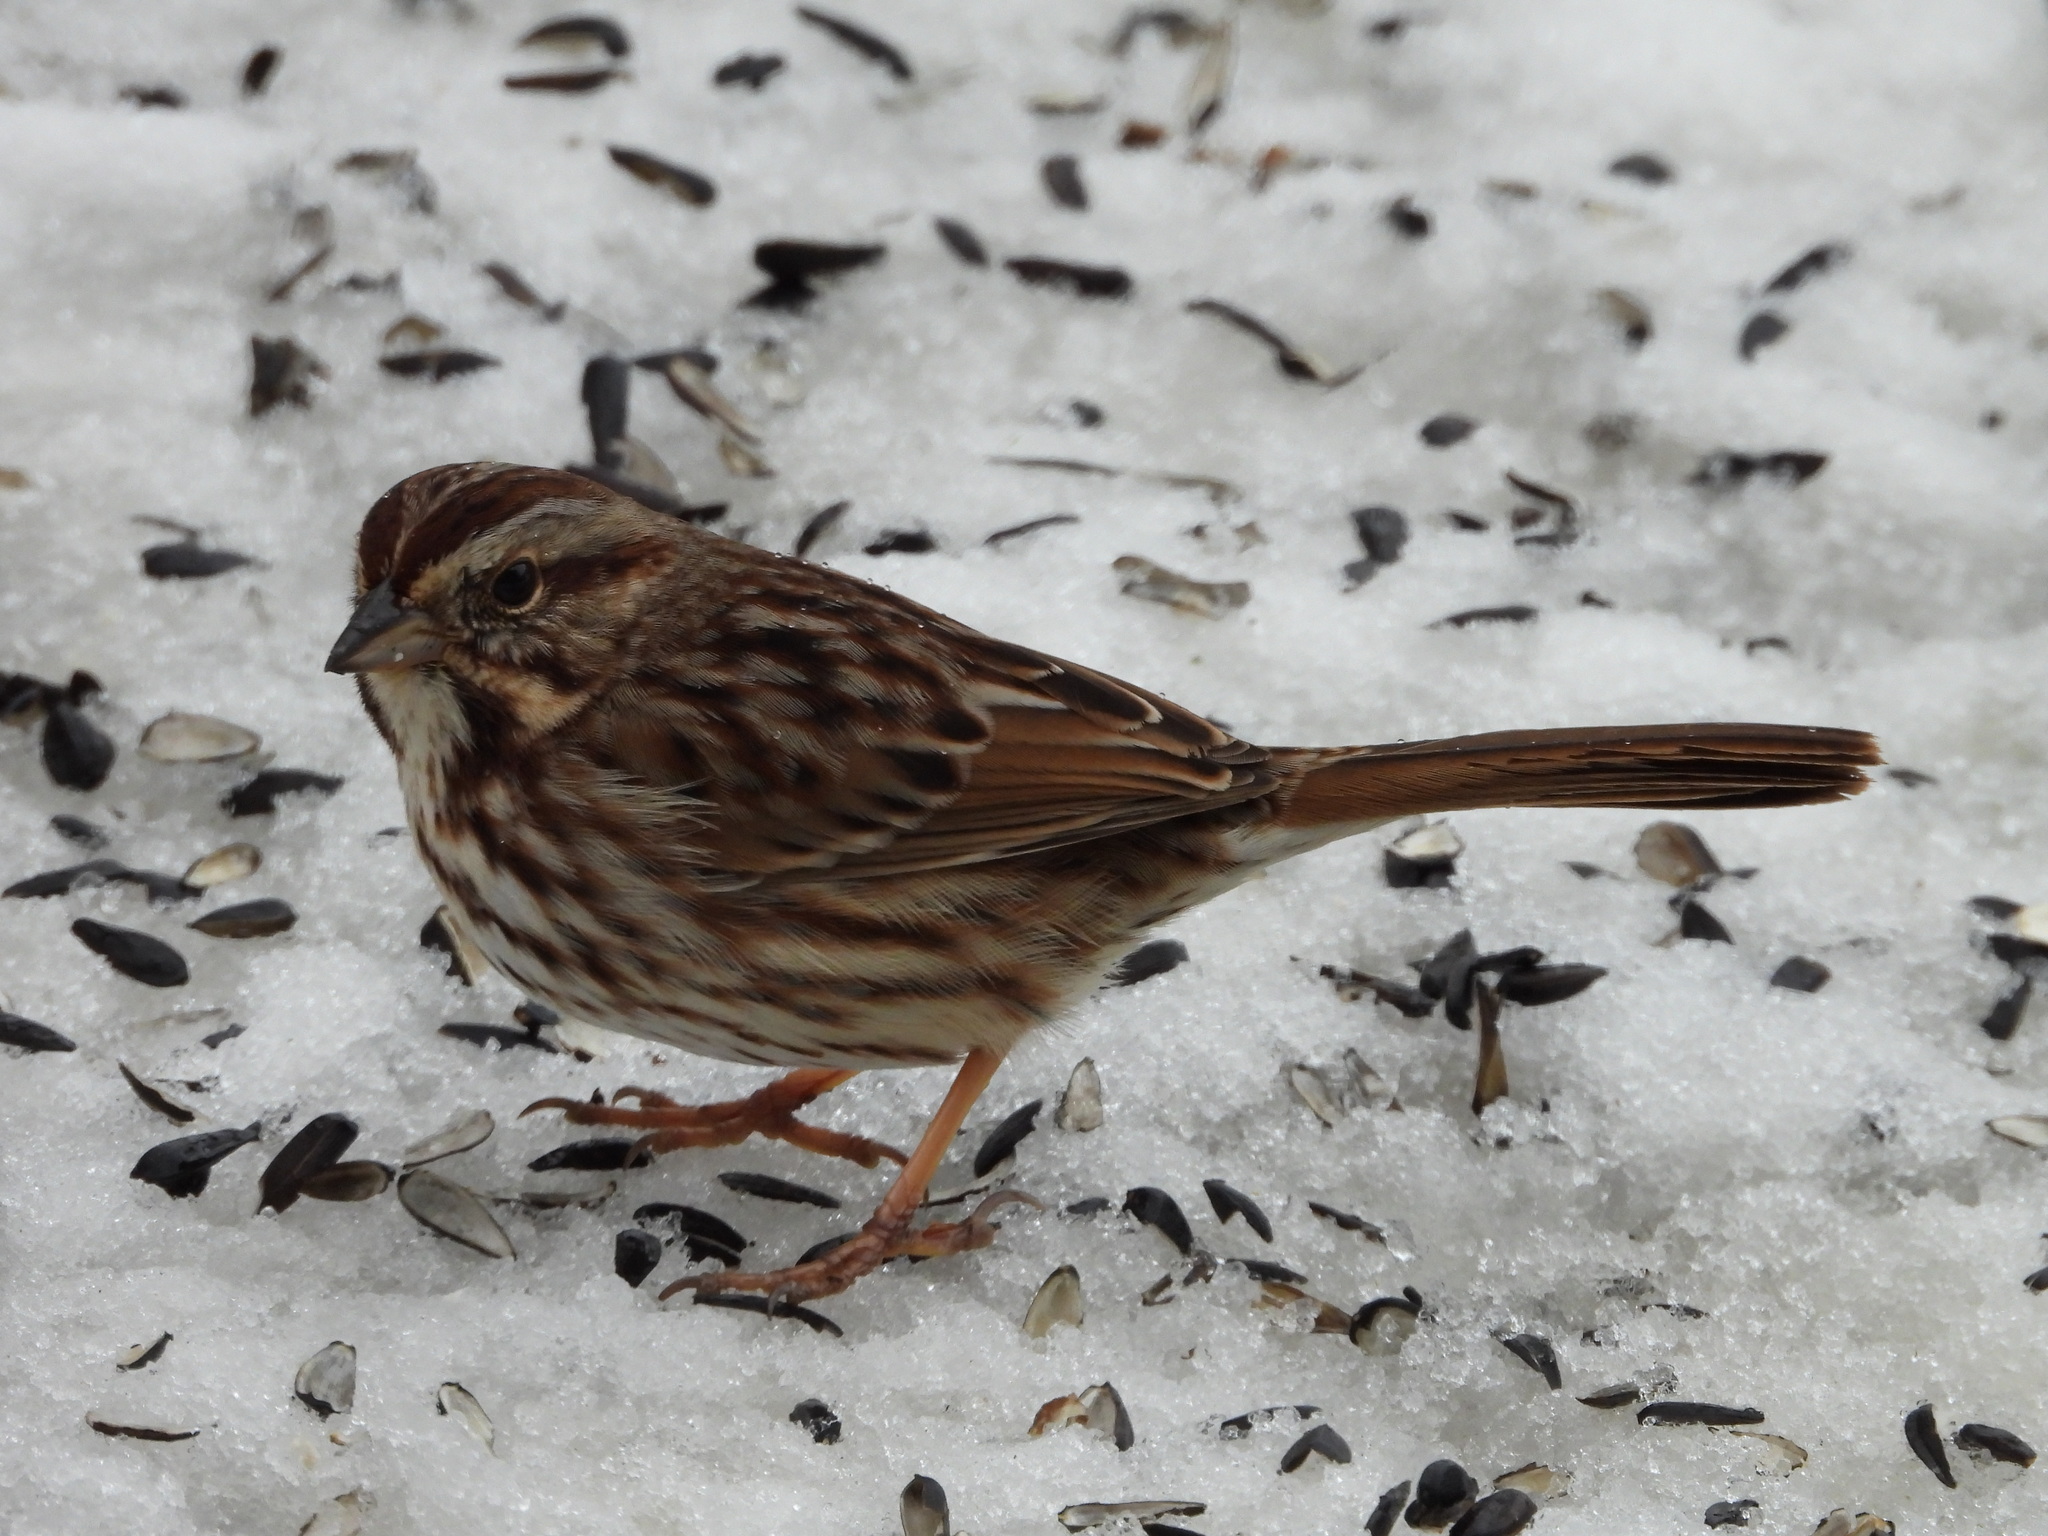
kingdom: Animalia
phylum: Chordata
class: Aves
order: Passeriformes
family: Passerellidae
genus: Melospiza
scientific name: Melospiza melodia
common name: Song sparrow
